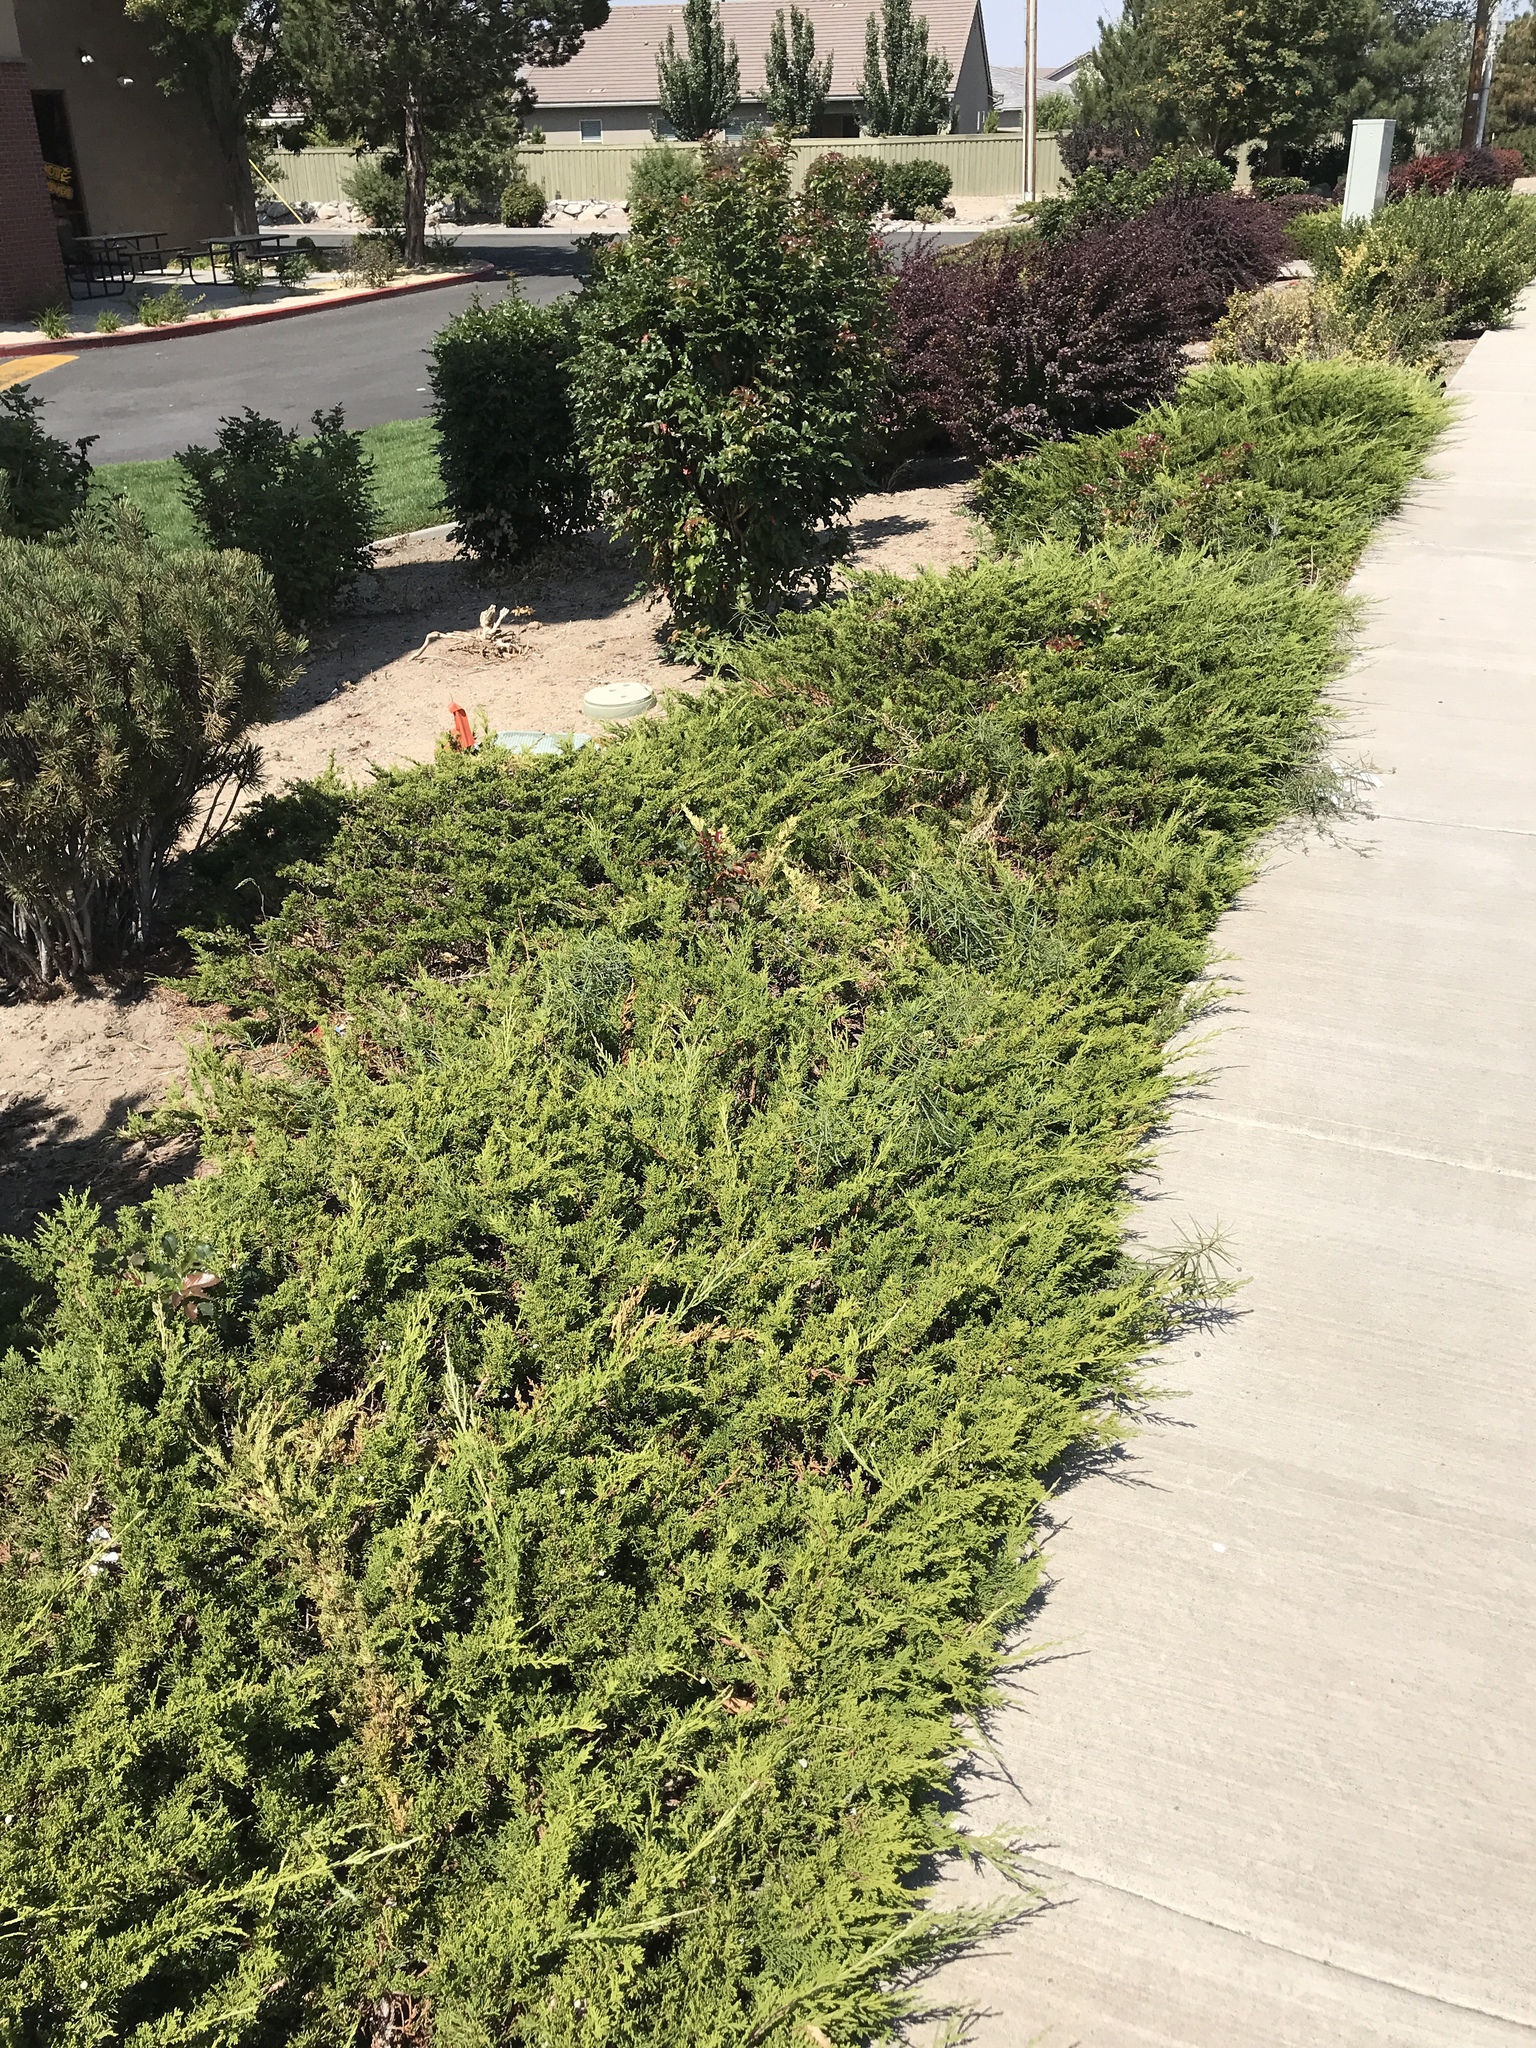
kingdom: Plantae
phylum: Tracheophyta
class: Magnoliopsida
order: Gentianales
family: Apocynaceae
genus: Asclepias
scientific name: Asclepias fascicularis
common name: Mexican milkweed
